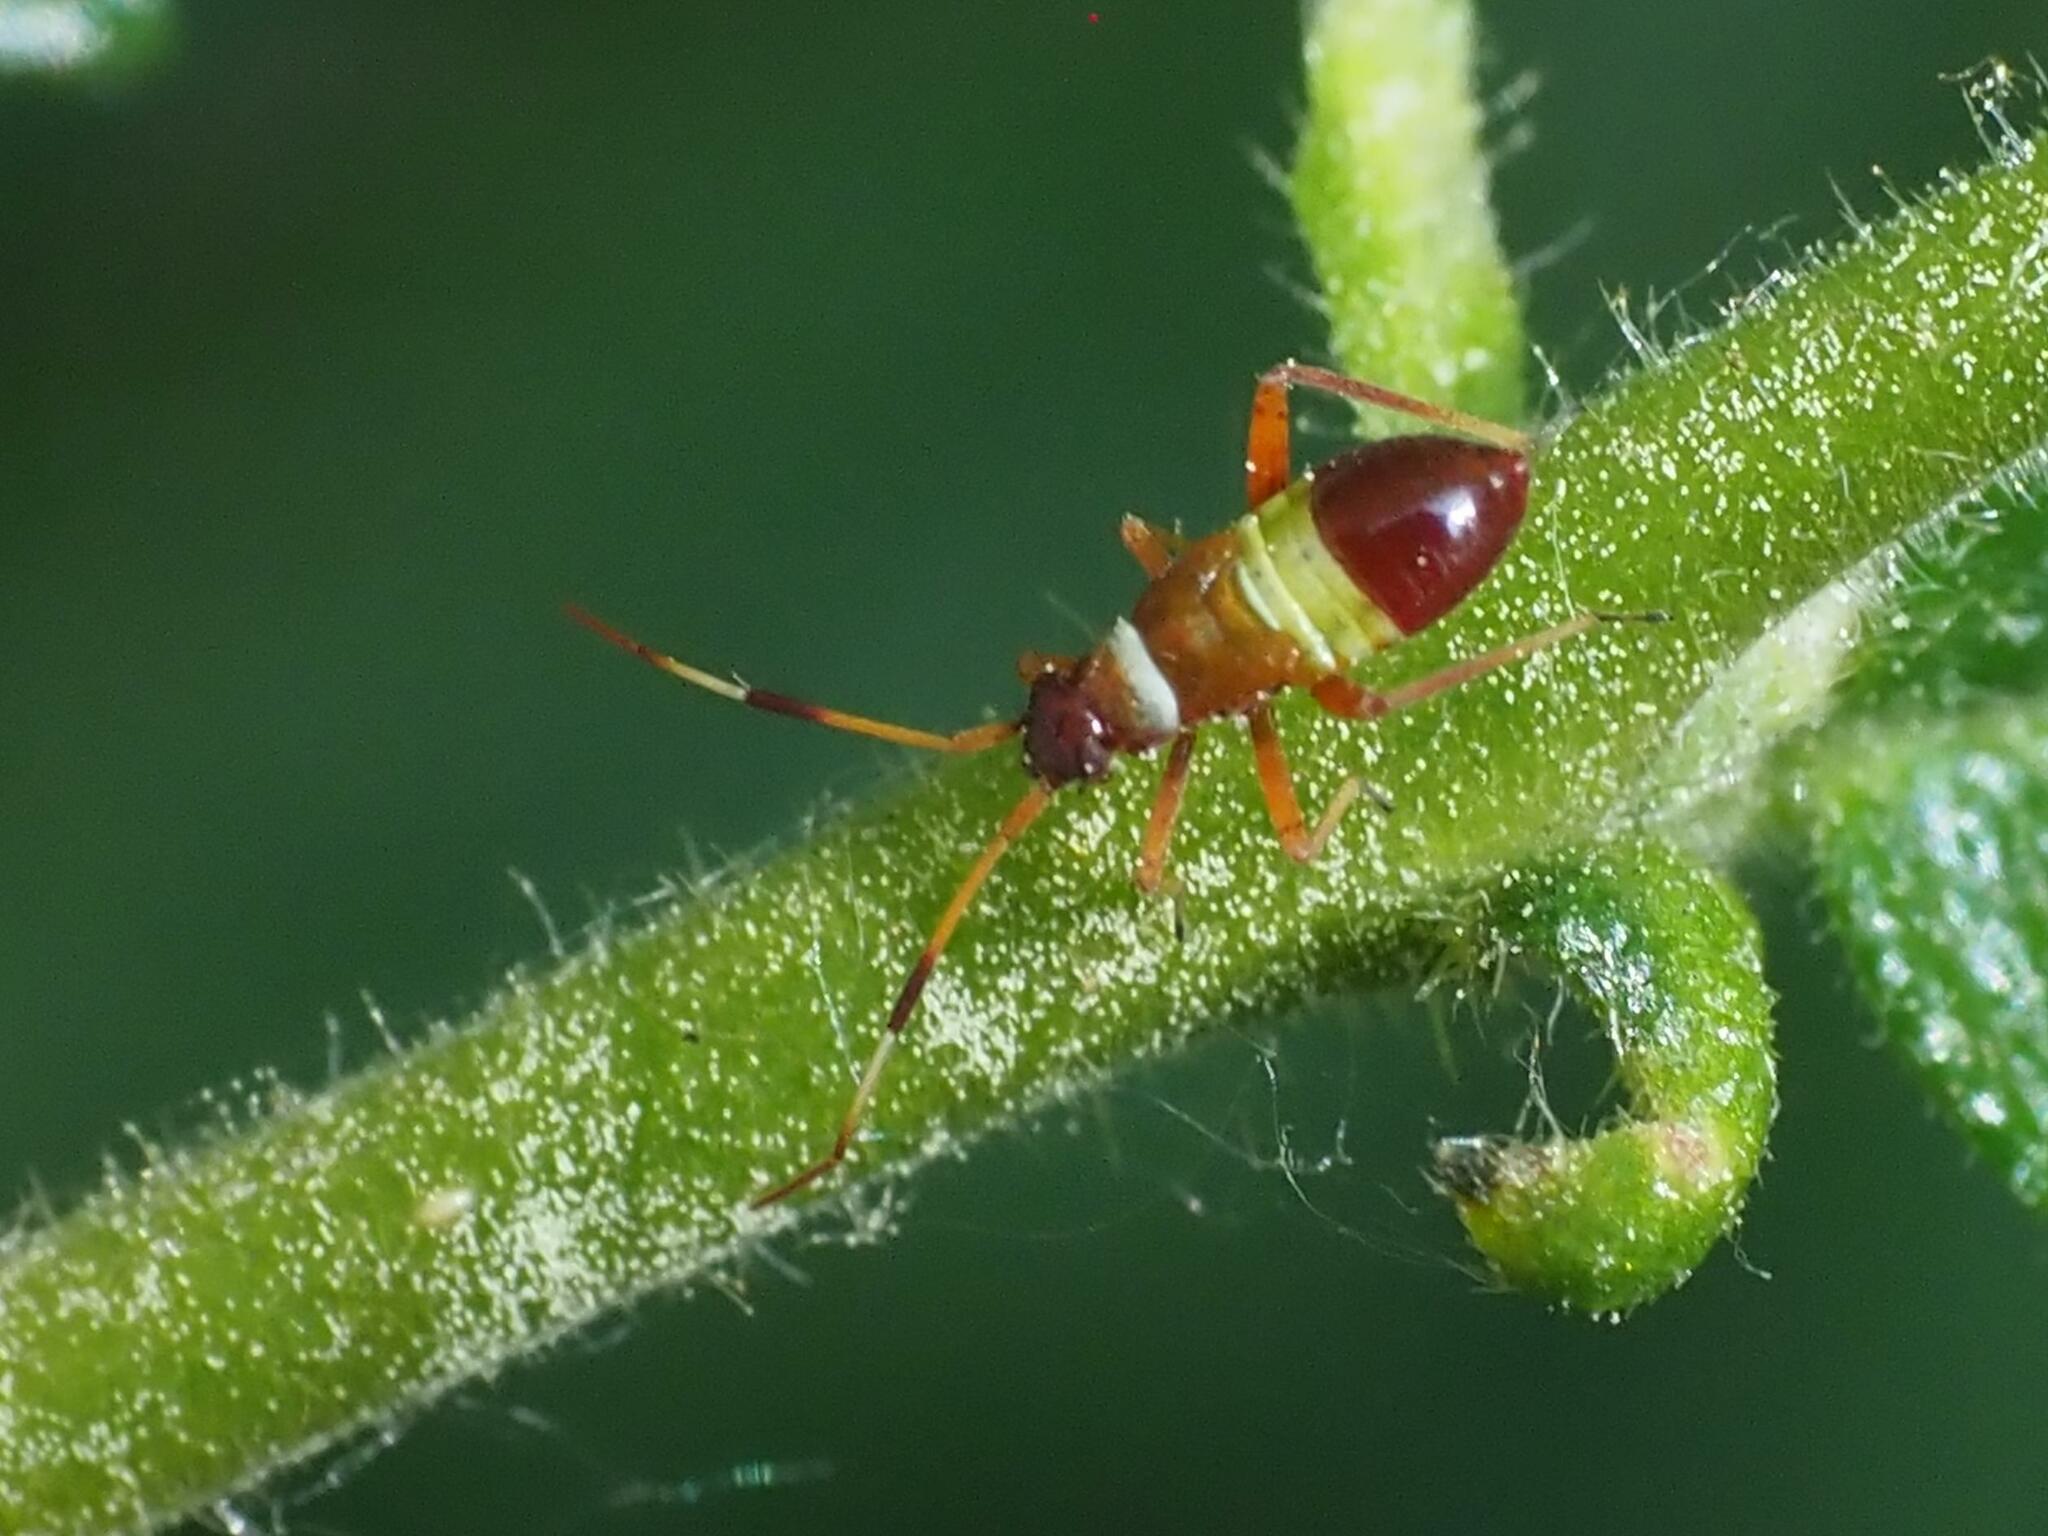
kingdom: Animalia
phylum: Arthropoda
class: Insecta
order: Hemiptera
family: Miridae
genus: Closterotomus
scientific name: Closterotomus biclavatus
